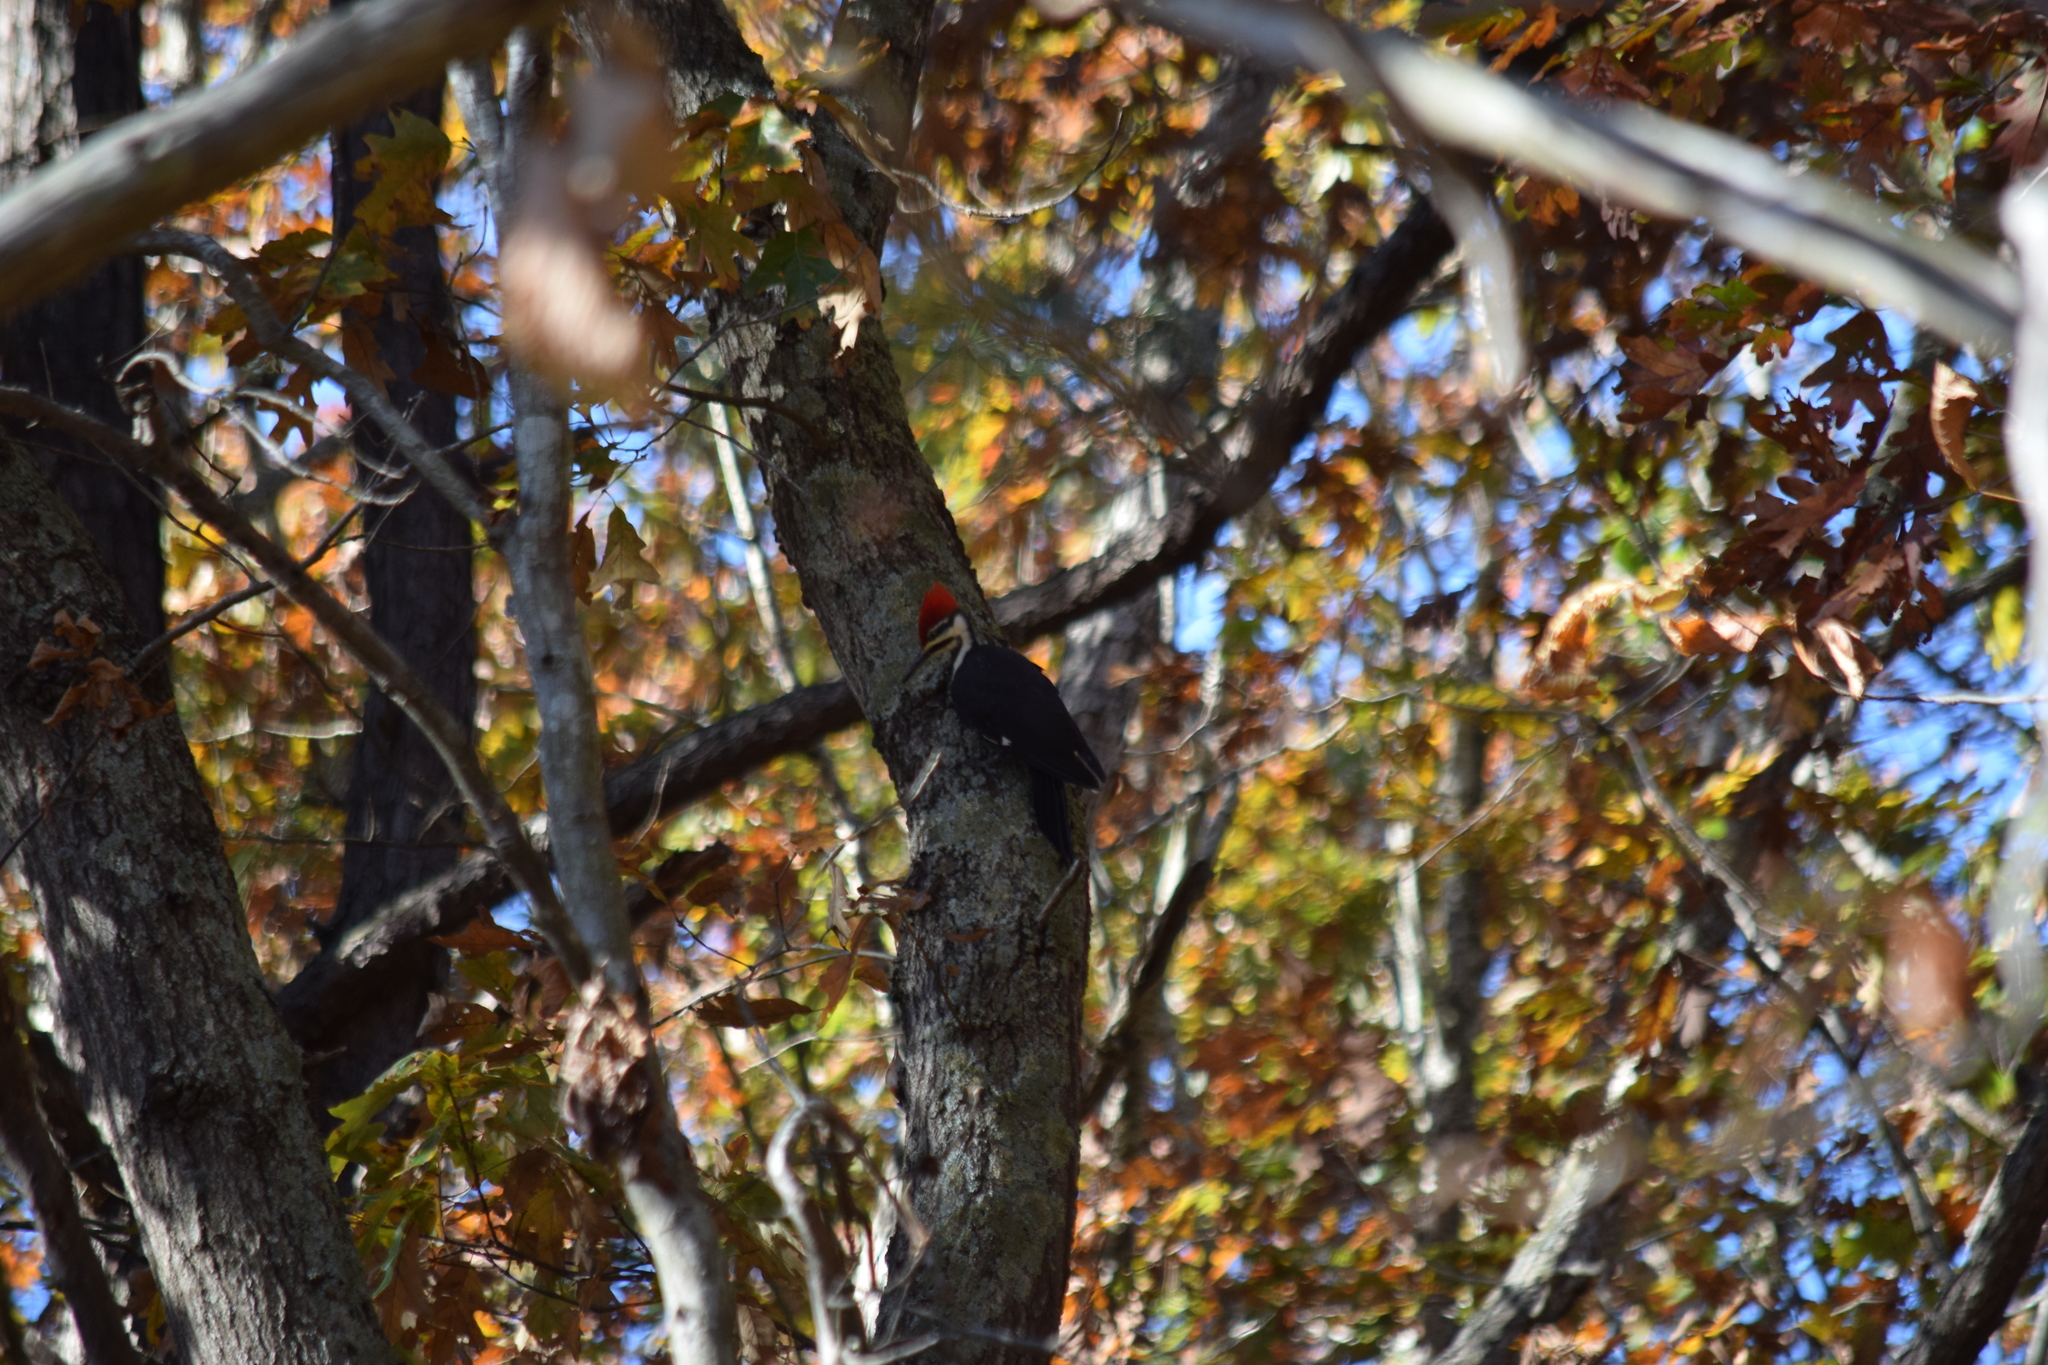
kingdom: Animalia
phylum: Chordata
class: Aves
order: Piciformes
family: Picidae
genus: Dryocopus
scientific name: Dryocopus pileatus
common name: Pileated woodpecker
